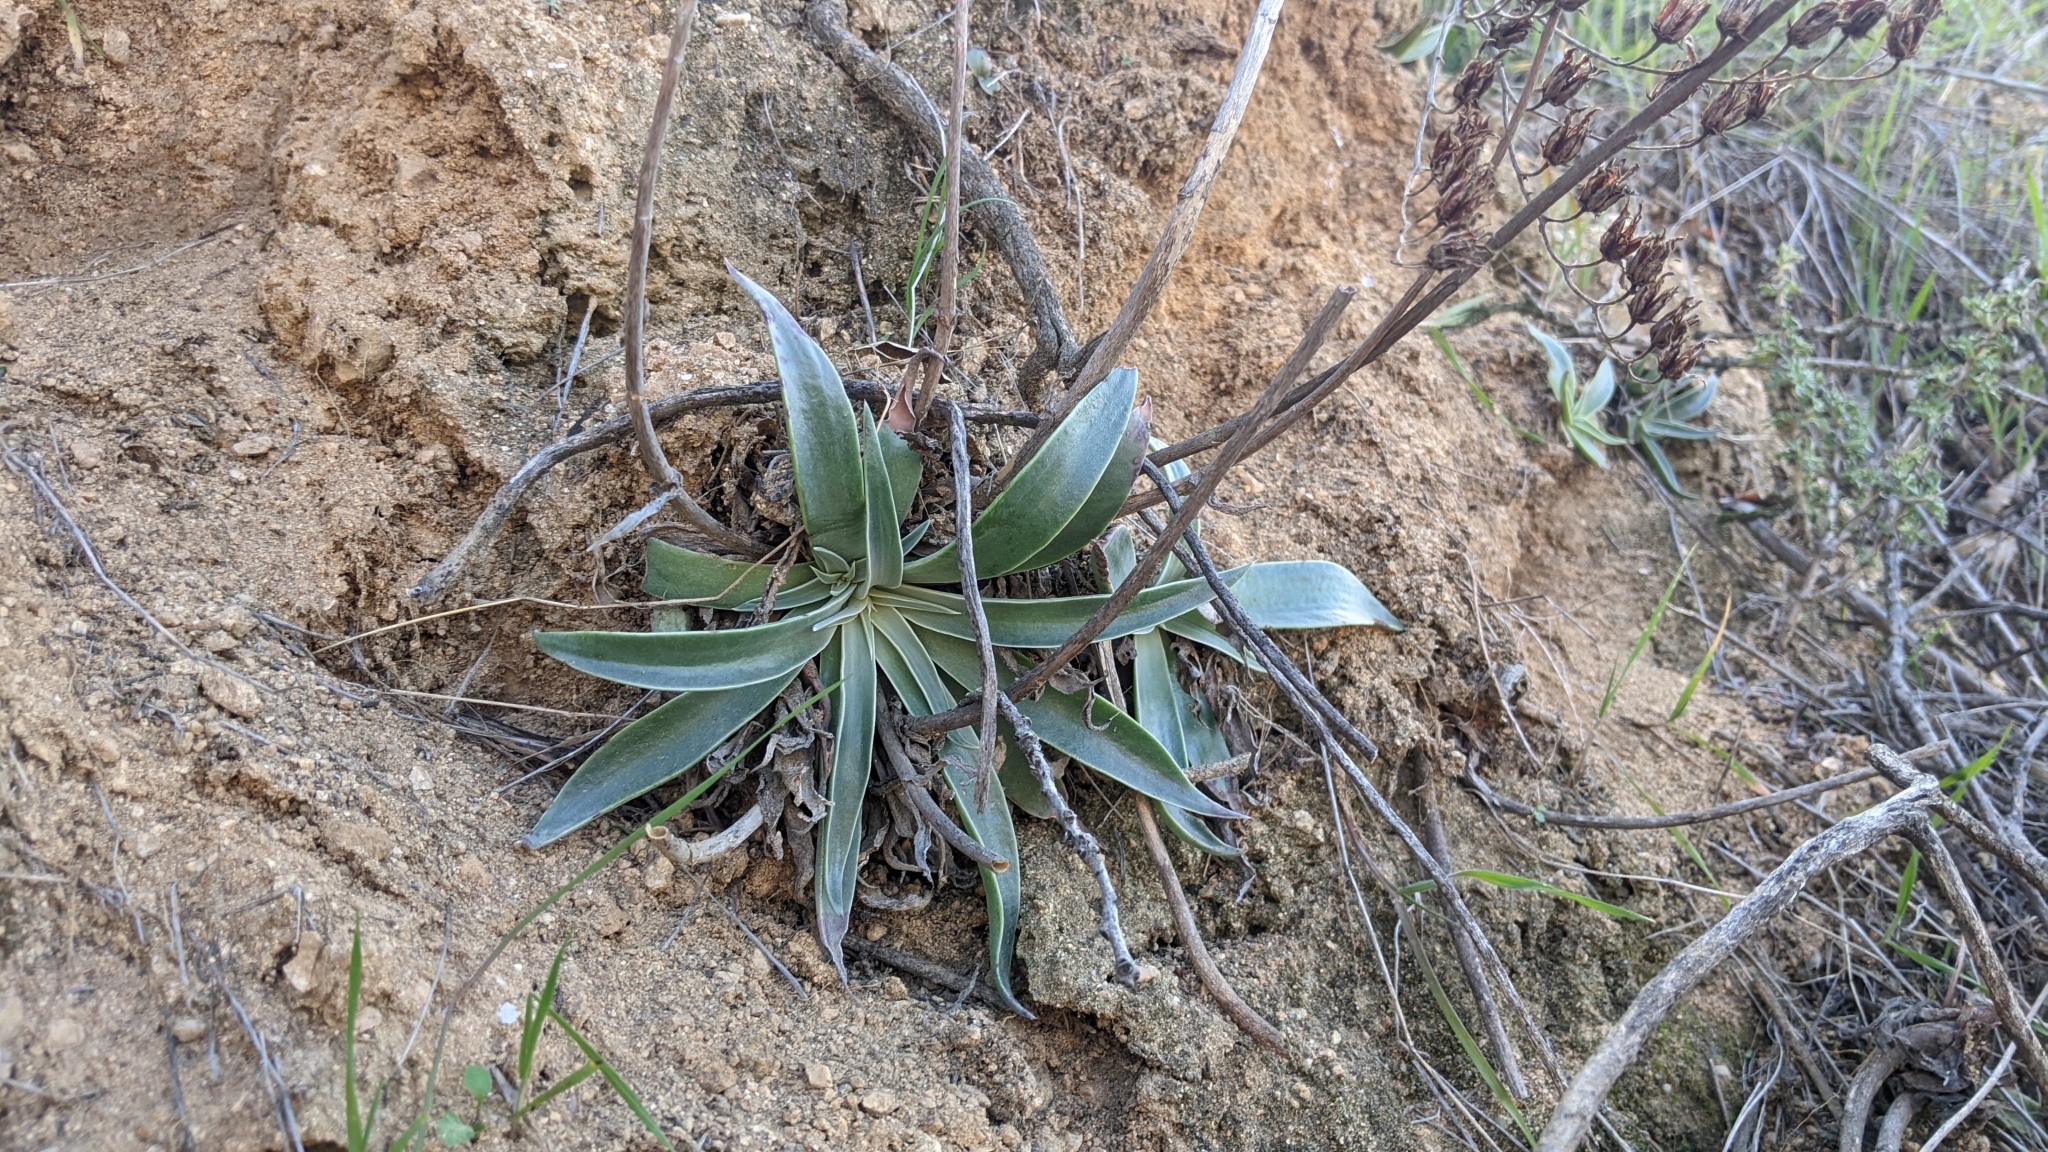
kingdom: Plantae
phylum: Tracheophyta
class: Magnoliopsida
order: Saxifragales
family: Crassulaceae
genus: Dudleya
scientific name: Dudleya lanceolata
